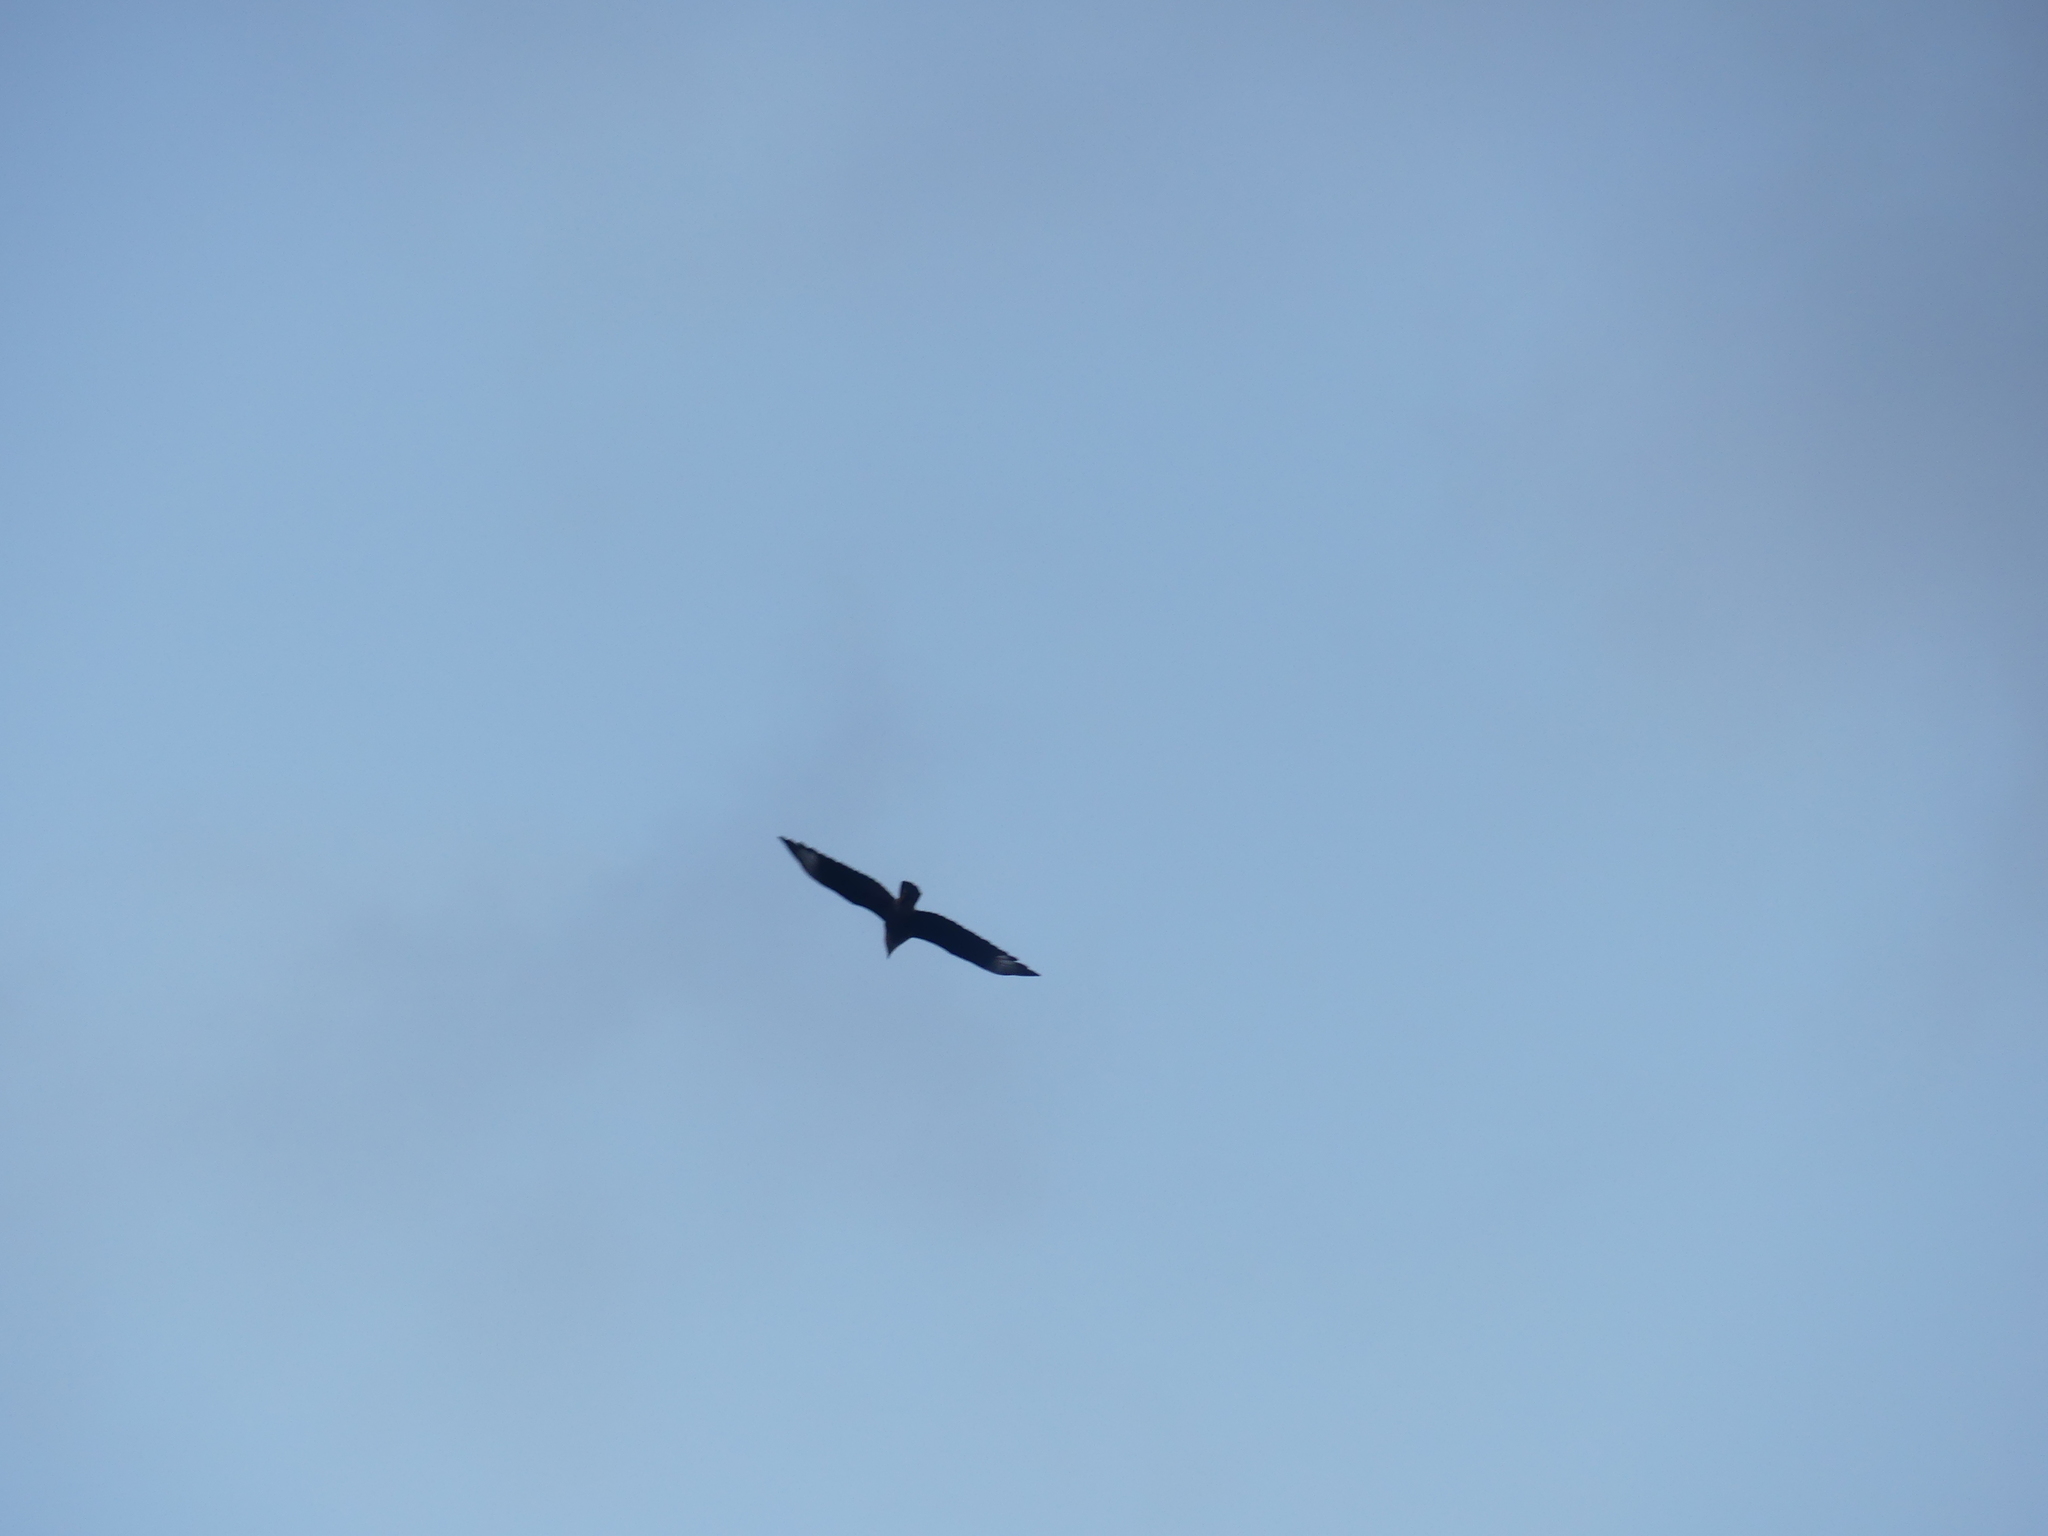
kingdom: Animalia
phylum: Chordata
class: Aves
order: Falconiformes
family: Falconidae
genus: Caracara
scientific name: Caracara plancus
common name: Southern caracara
